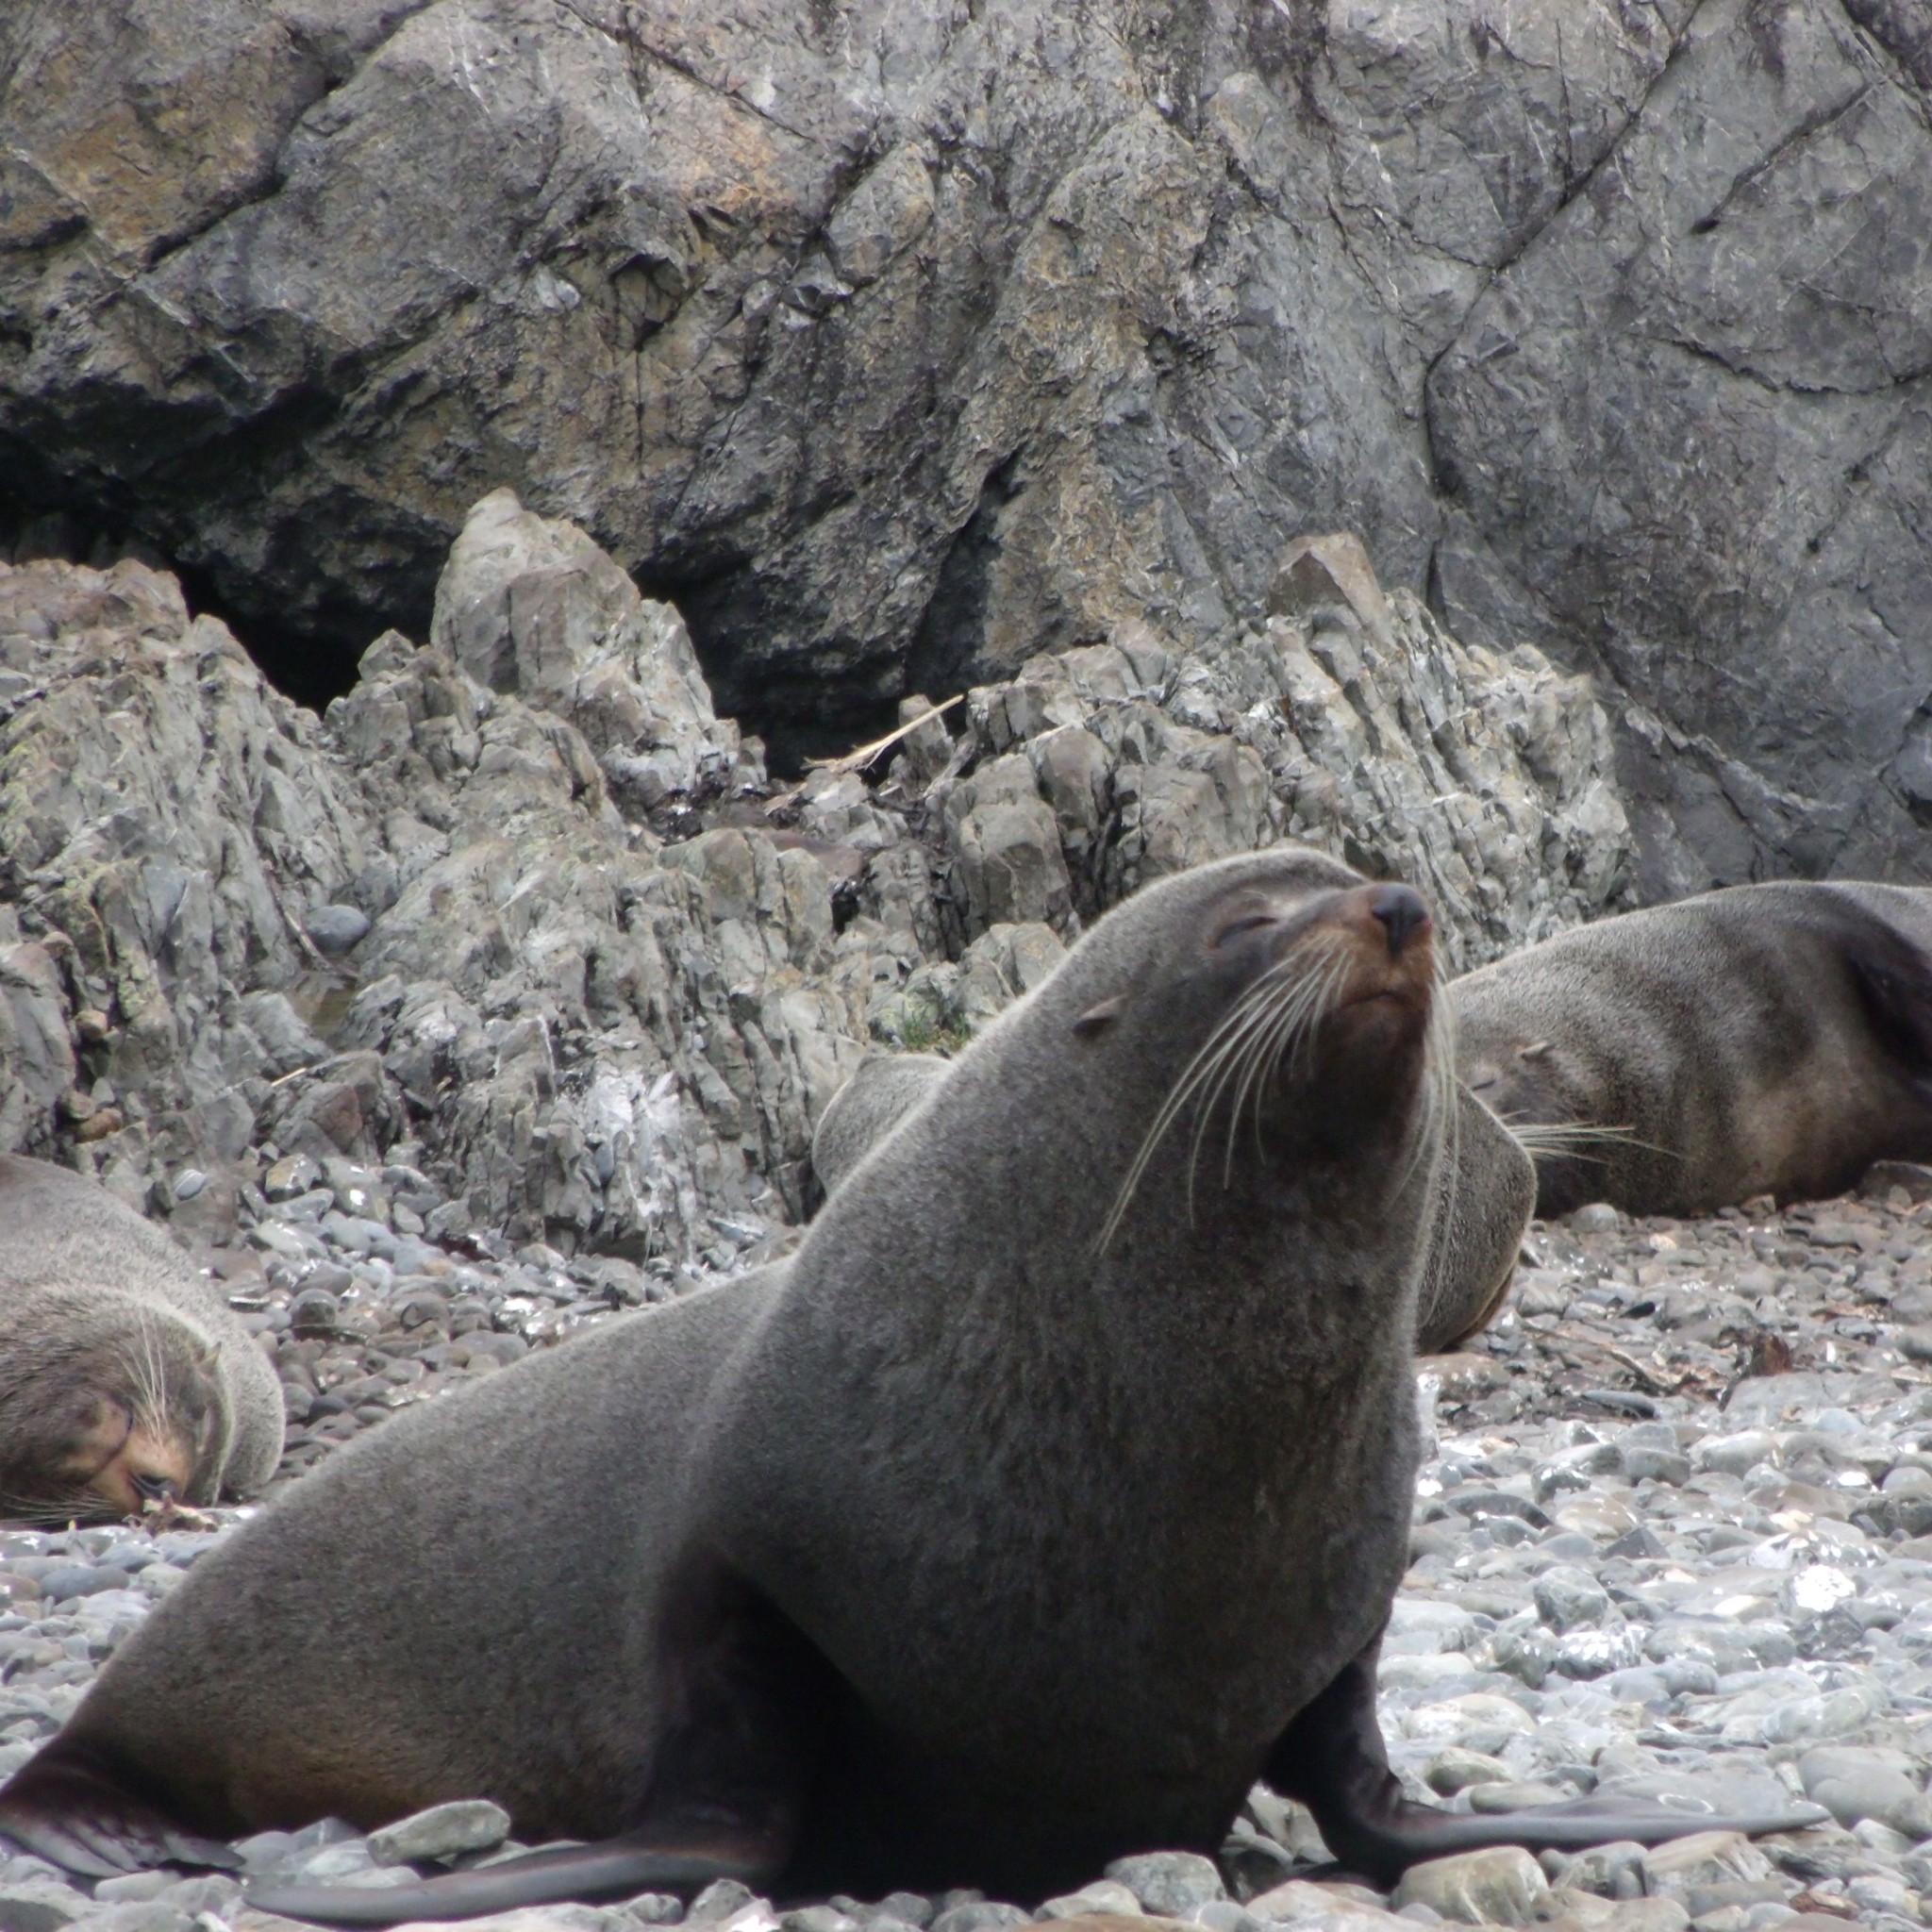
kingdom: Animalia
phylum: Chordata
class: Mammalia
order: Carnivora
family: Otariidae
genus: Arctocephalus
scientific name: Arctocephalus forsteri
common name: New zealand fur seal
